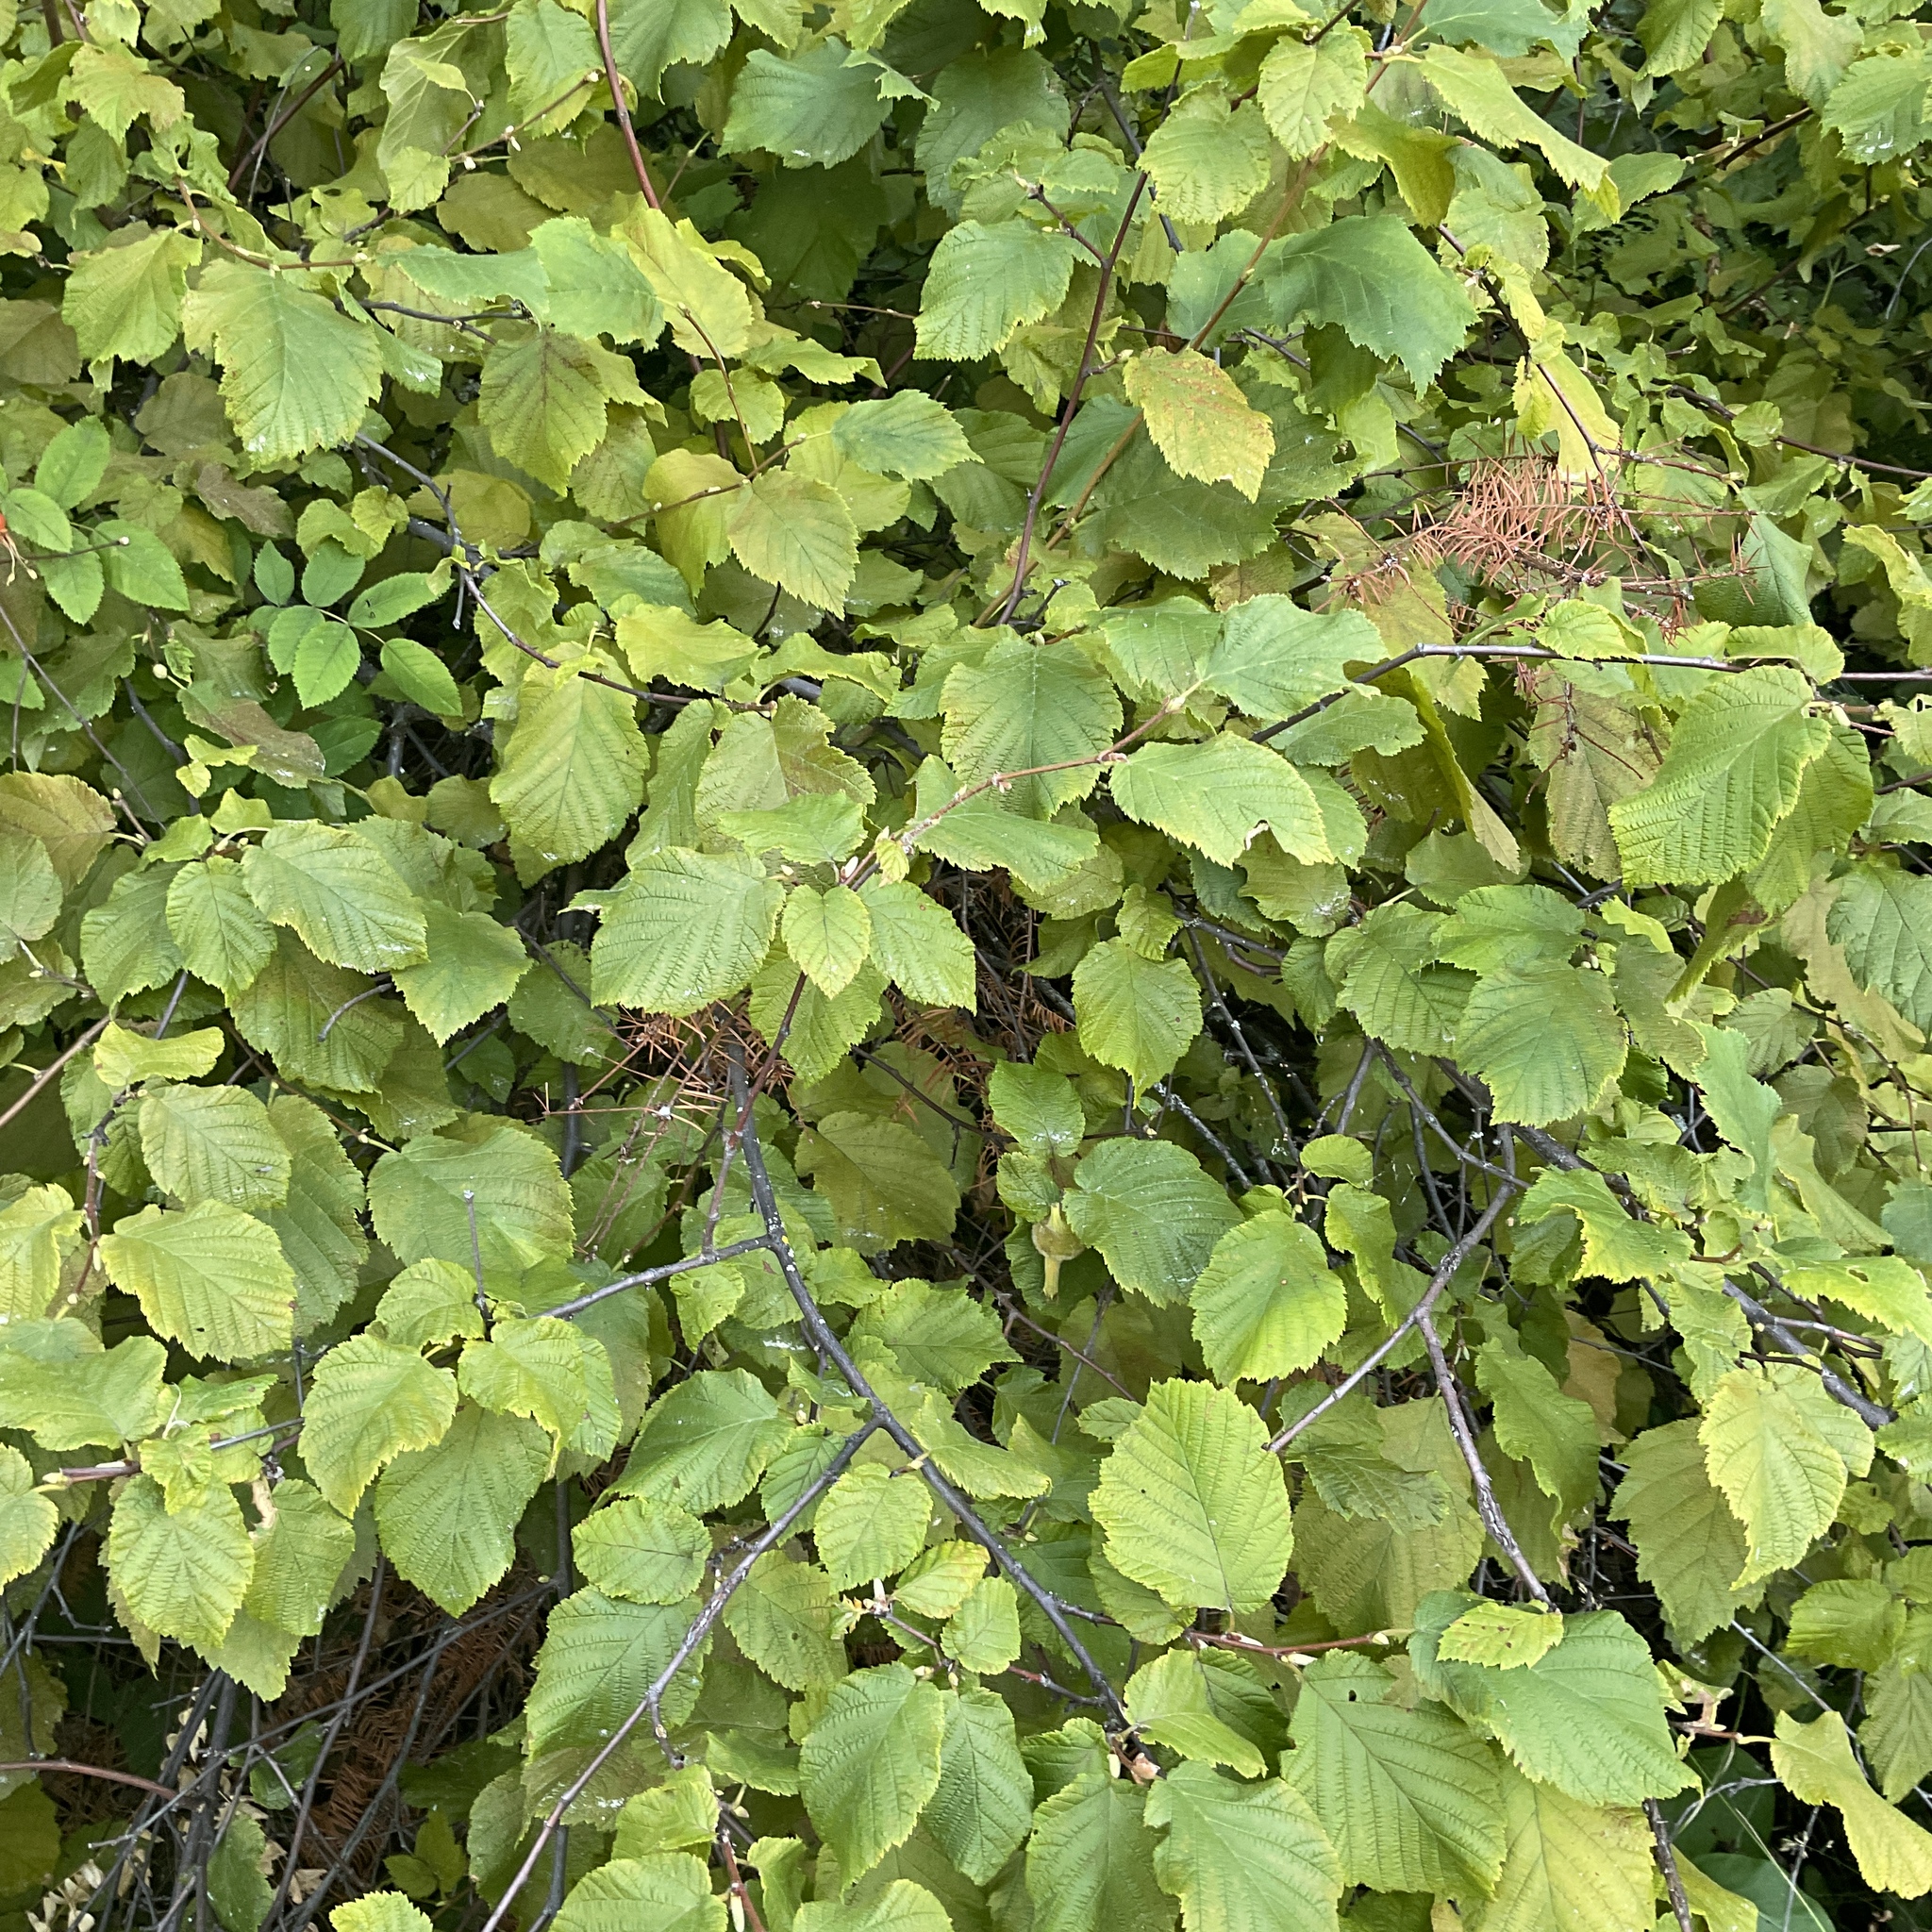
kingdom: Plantae
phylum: Tracheophyta
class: Magnoliopsida
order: Fagales
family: Betulaceae
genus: Corylus
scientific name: Corylus cornuta
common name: Beaked hazel
